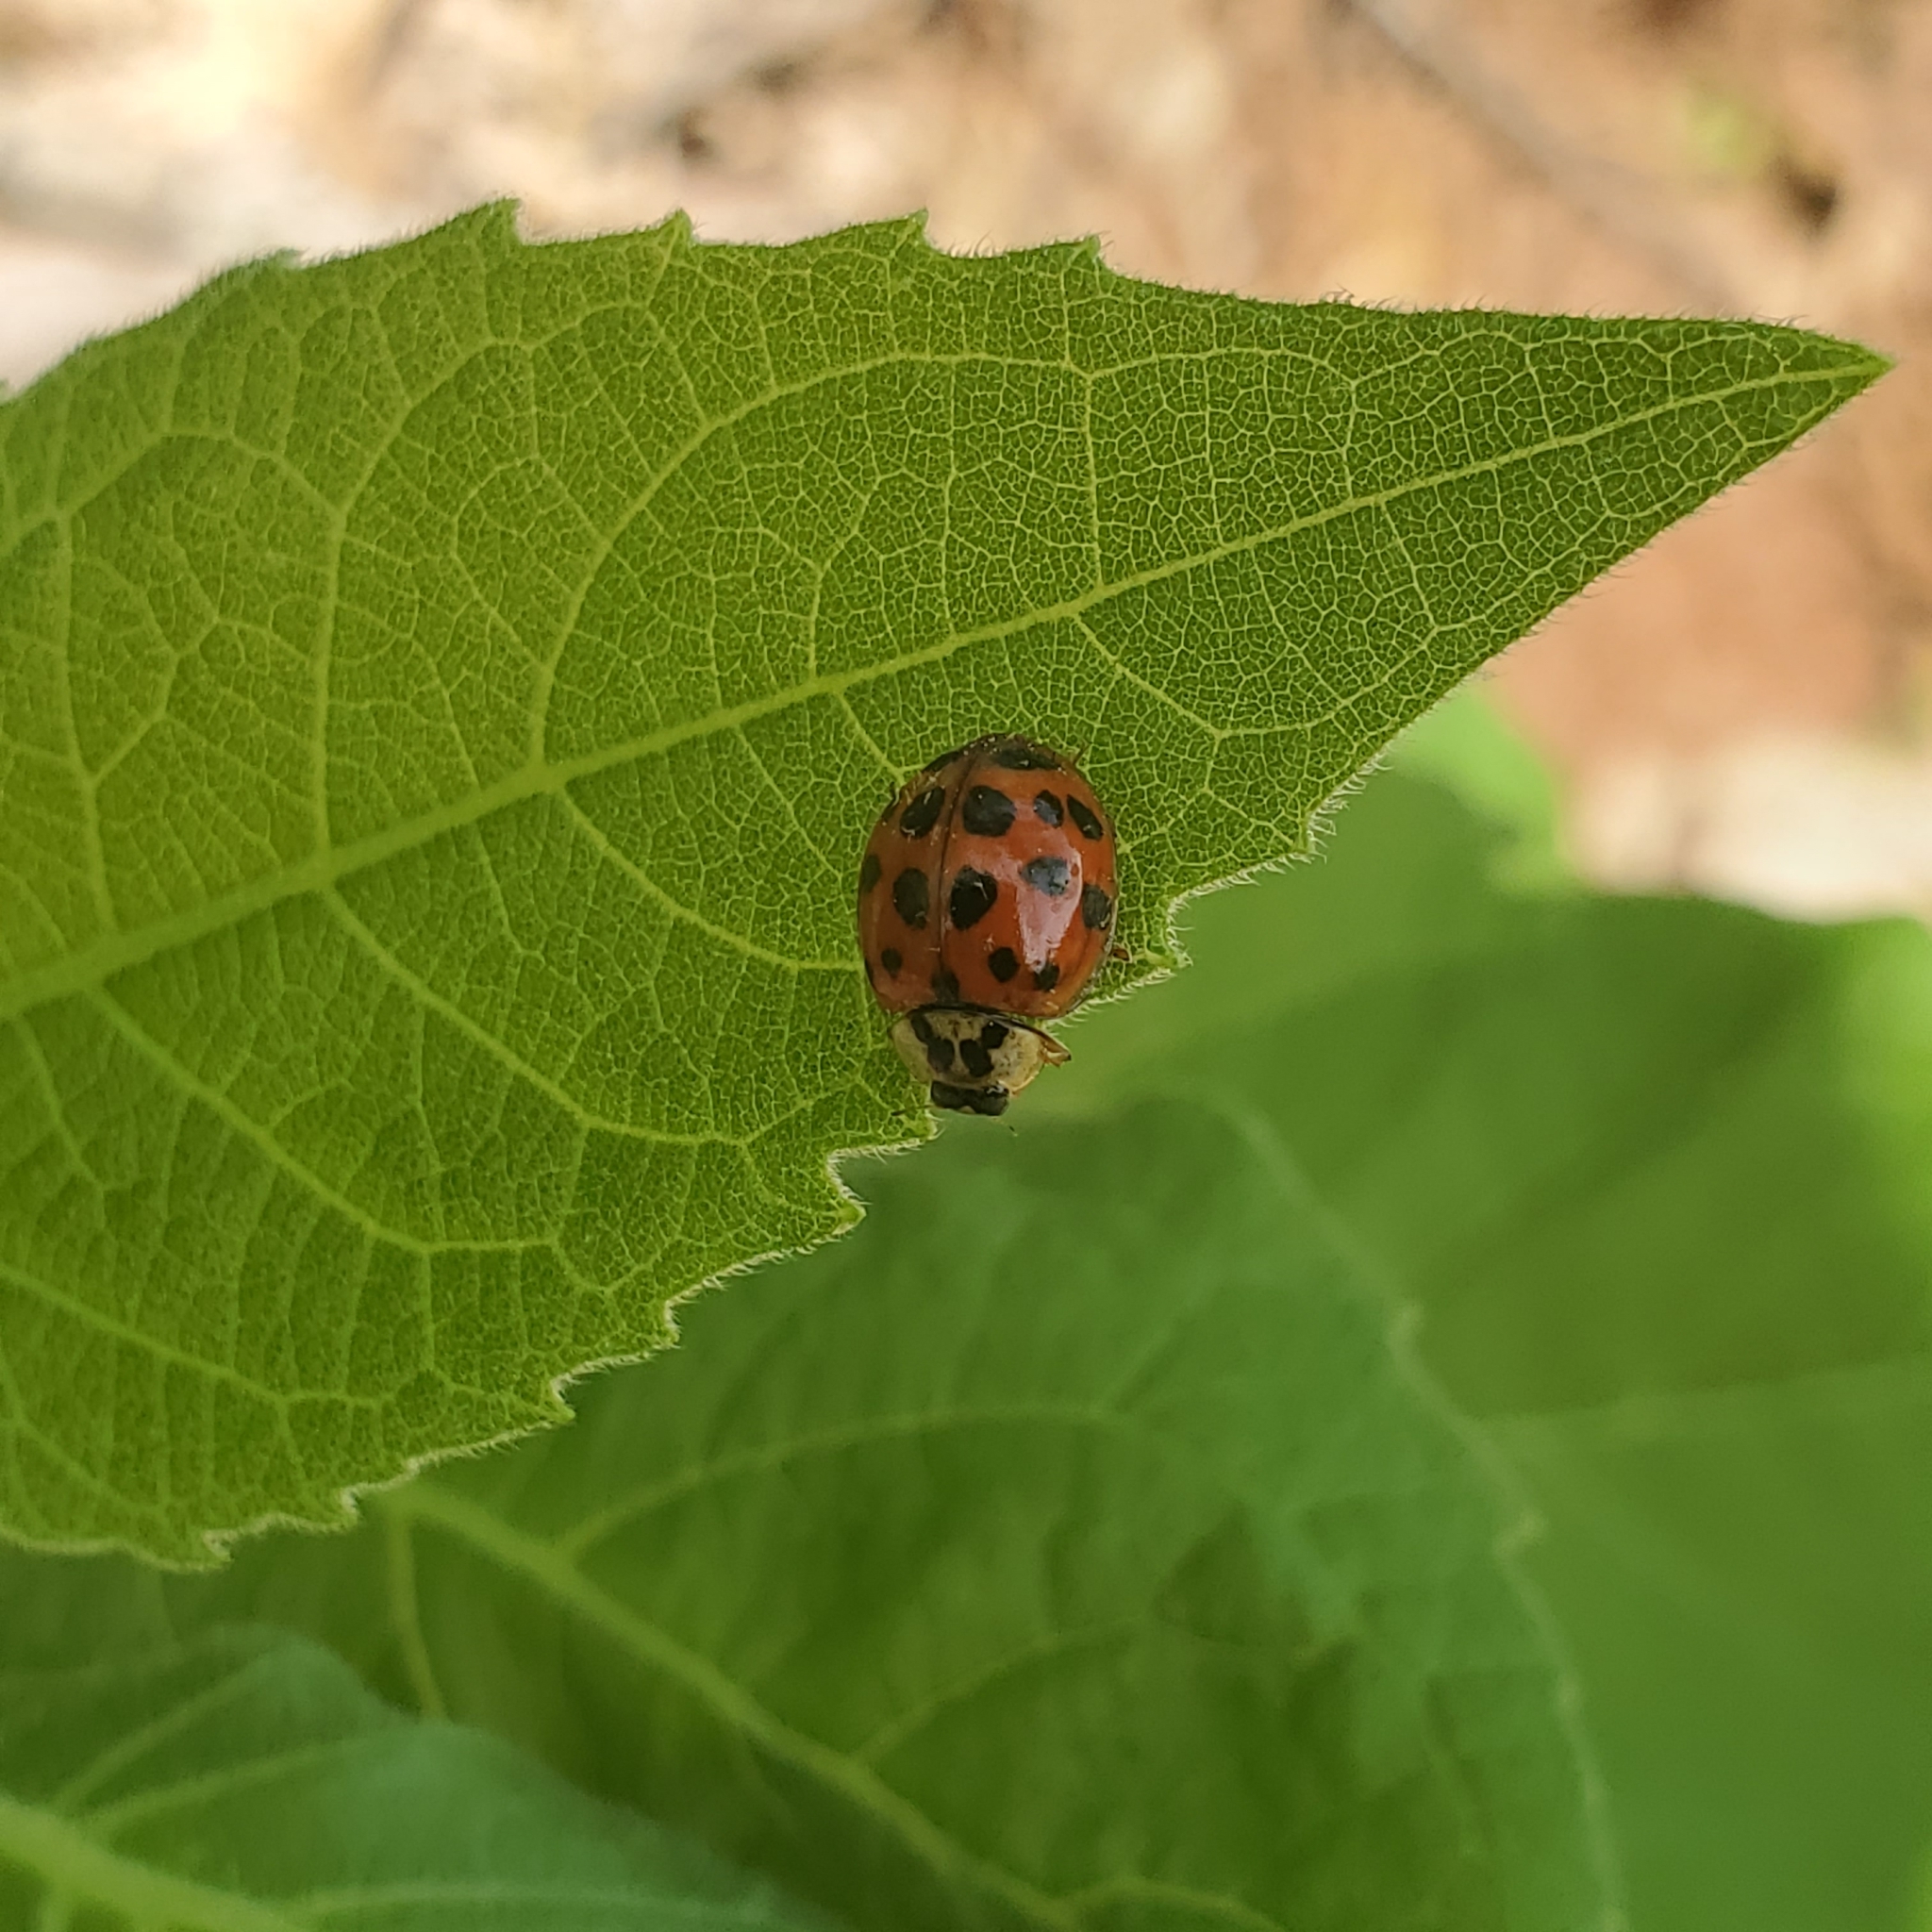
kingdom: Fungi
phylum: Ascomycota
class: Laboulbeniomycetes
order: Laboulbeniales
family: Laboulbeniaceae
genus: Hesperomyces
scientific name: Hesperomyces harmoniae
